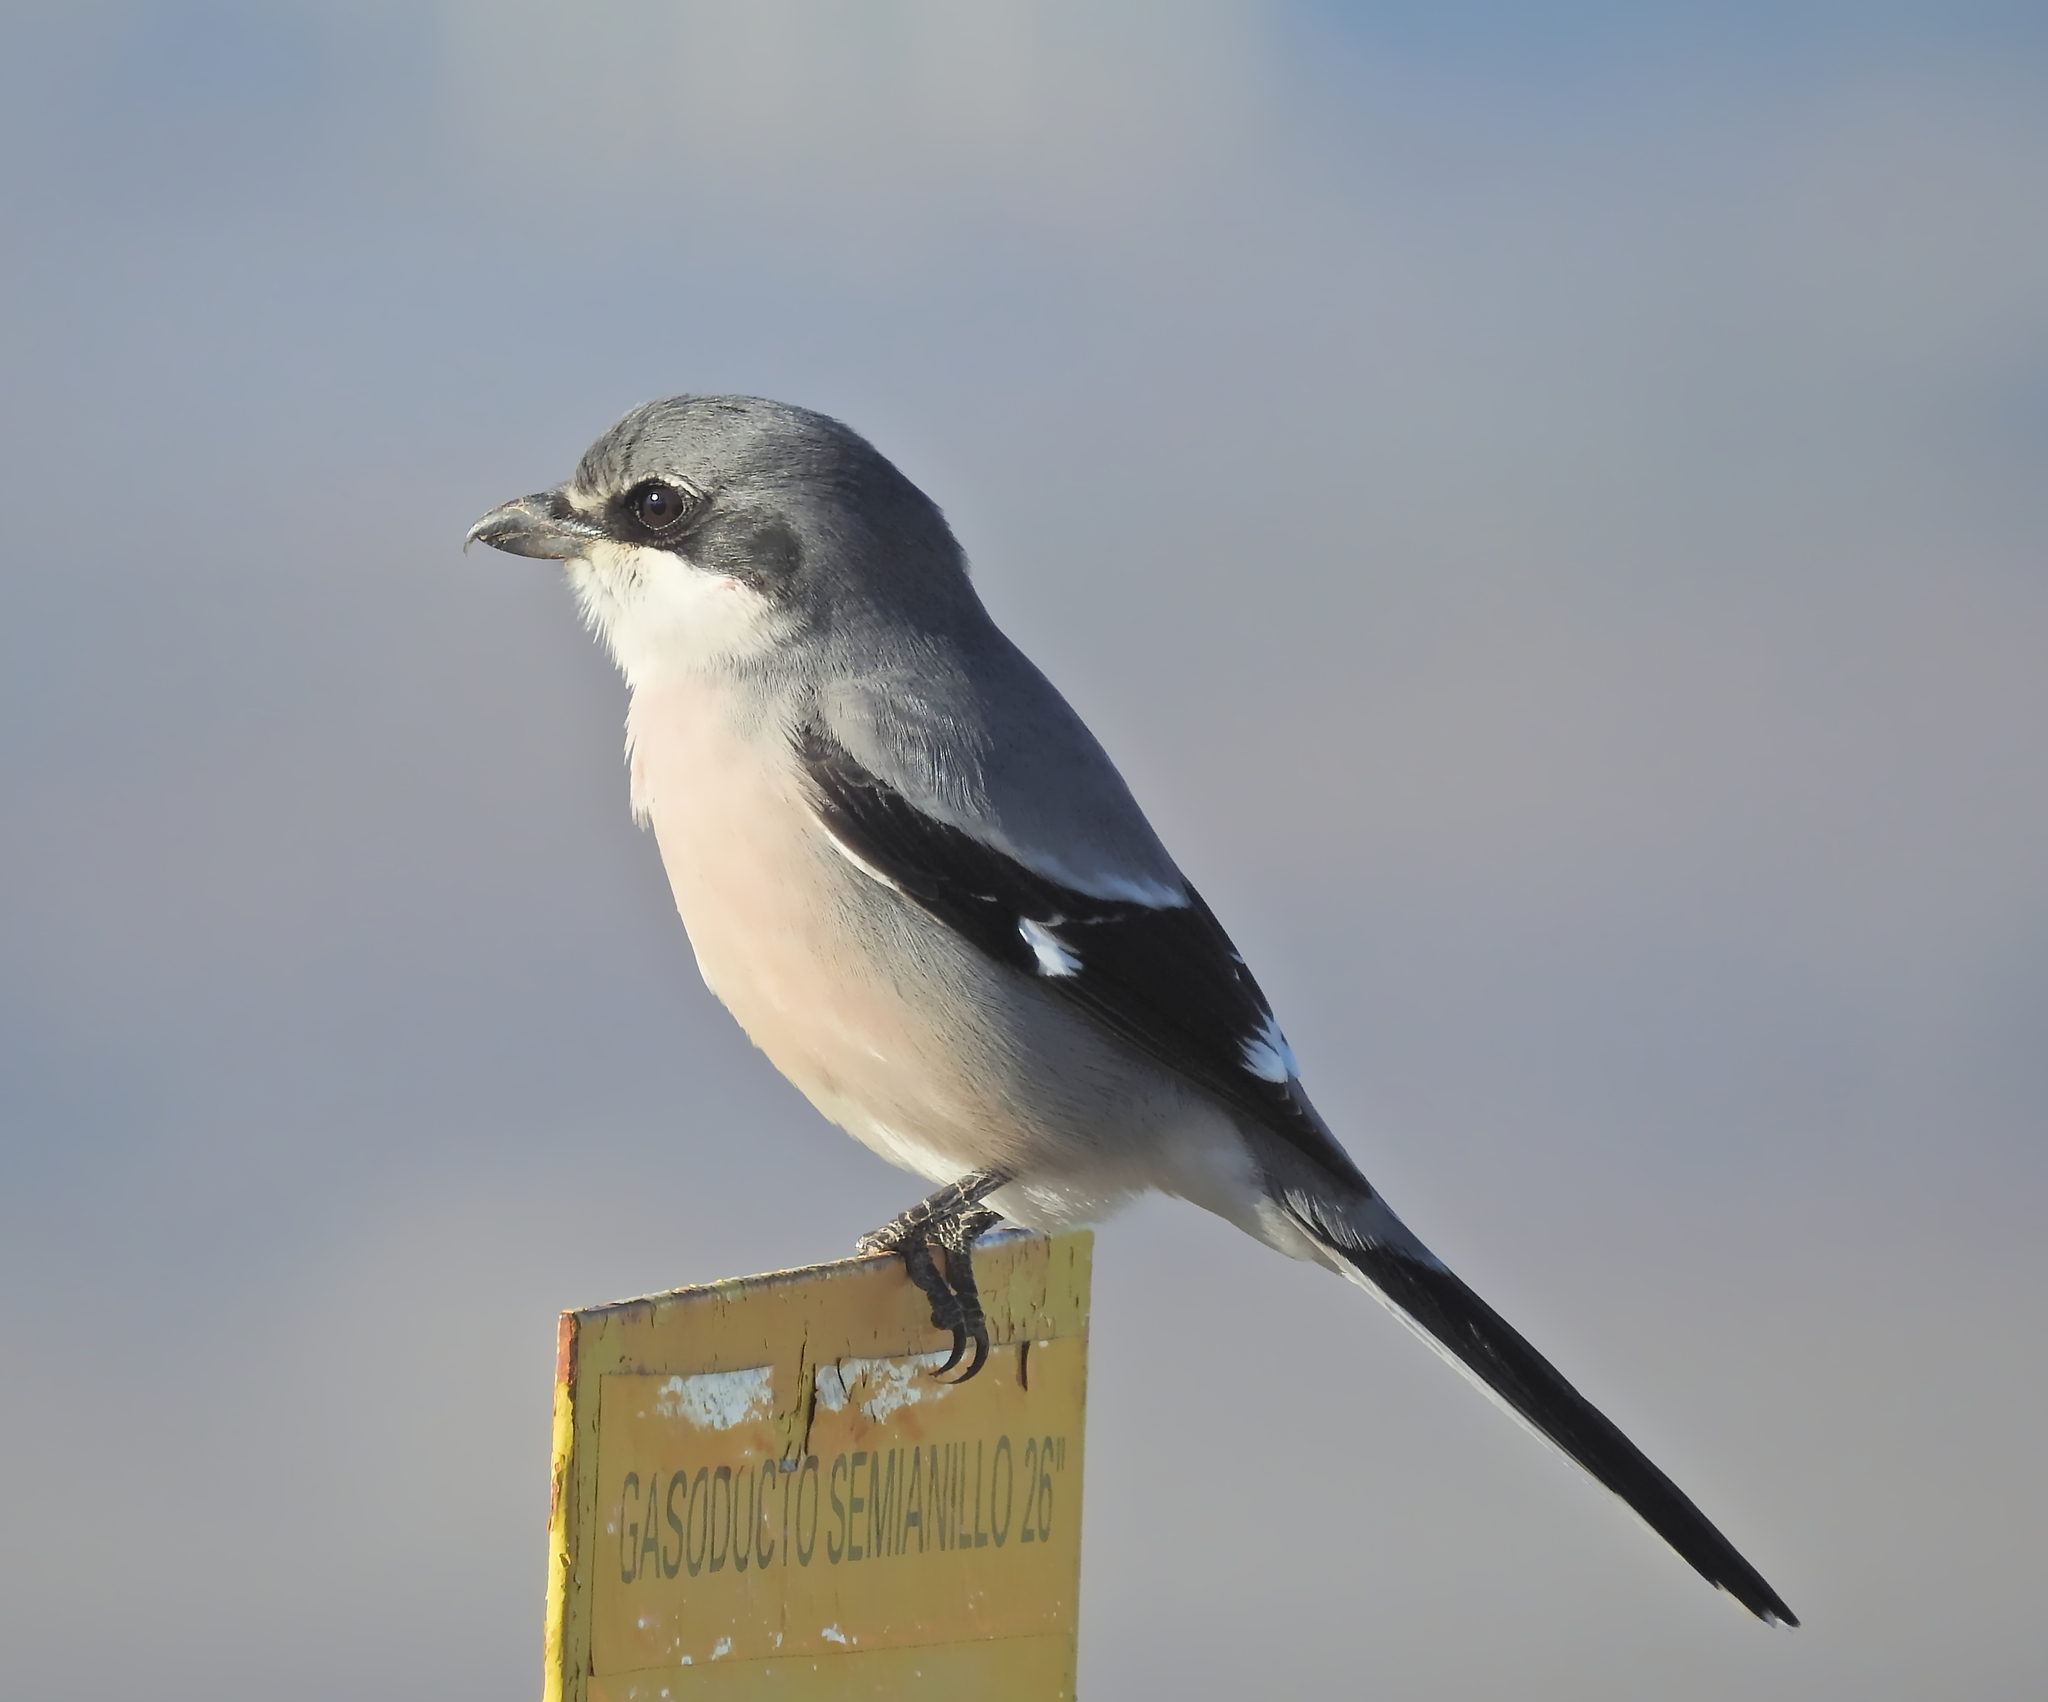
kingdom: Animalia
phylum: Chordata
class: Aves
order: Passeriformes
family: Laniidae
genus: Lanius
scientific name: Lanius meridionalis
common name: Iberian grey shrike
